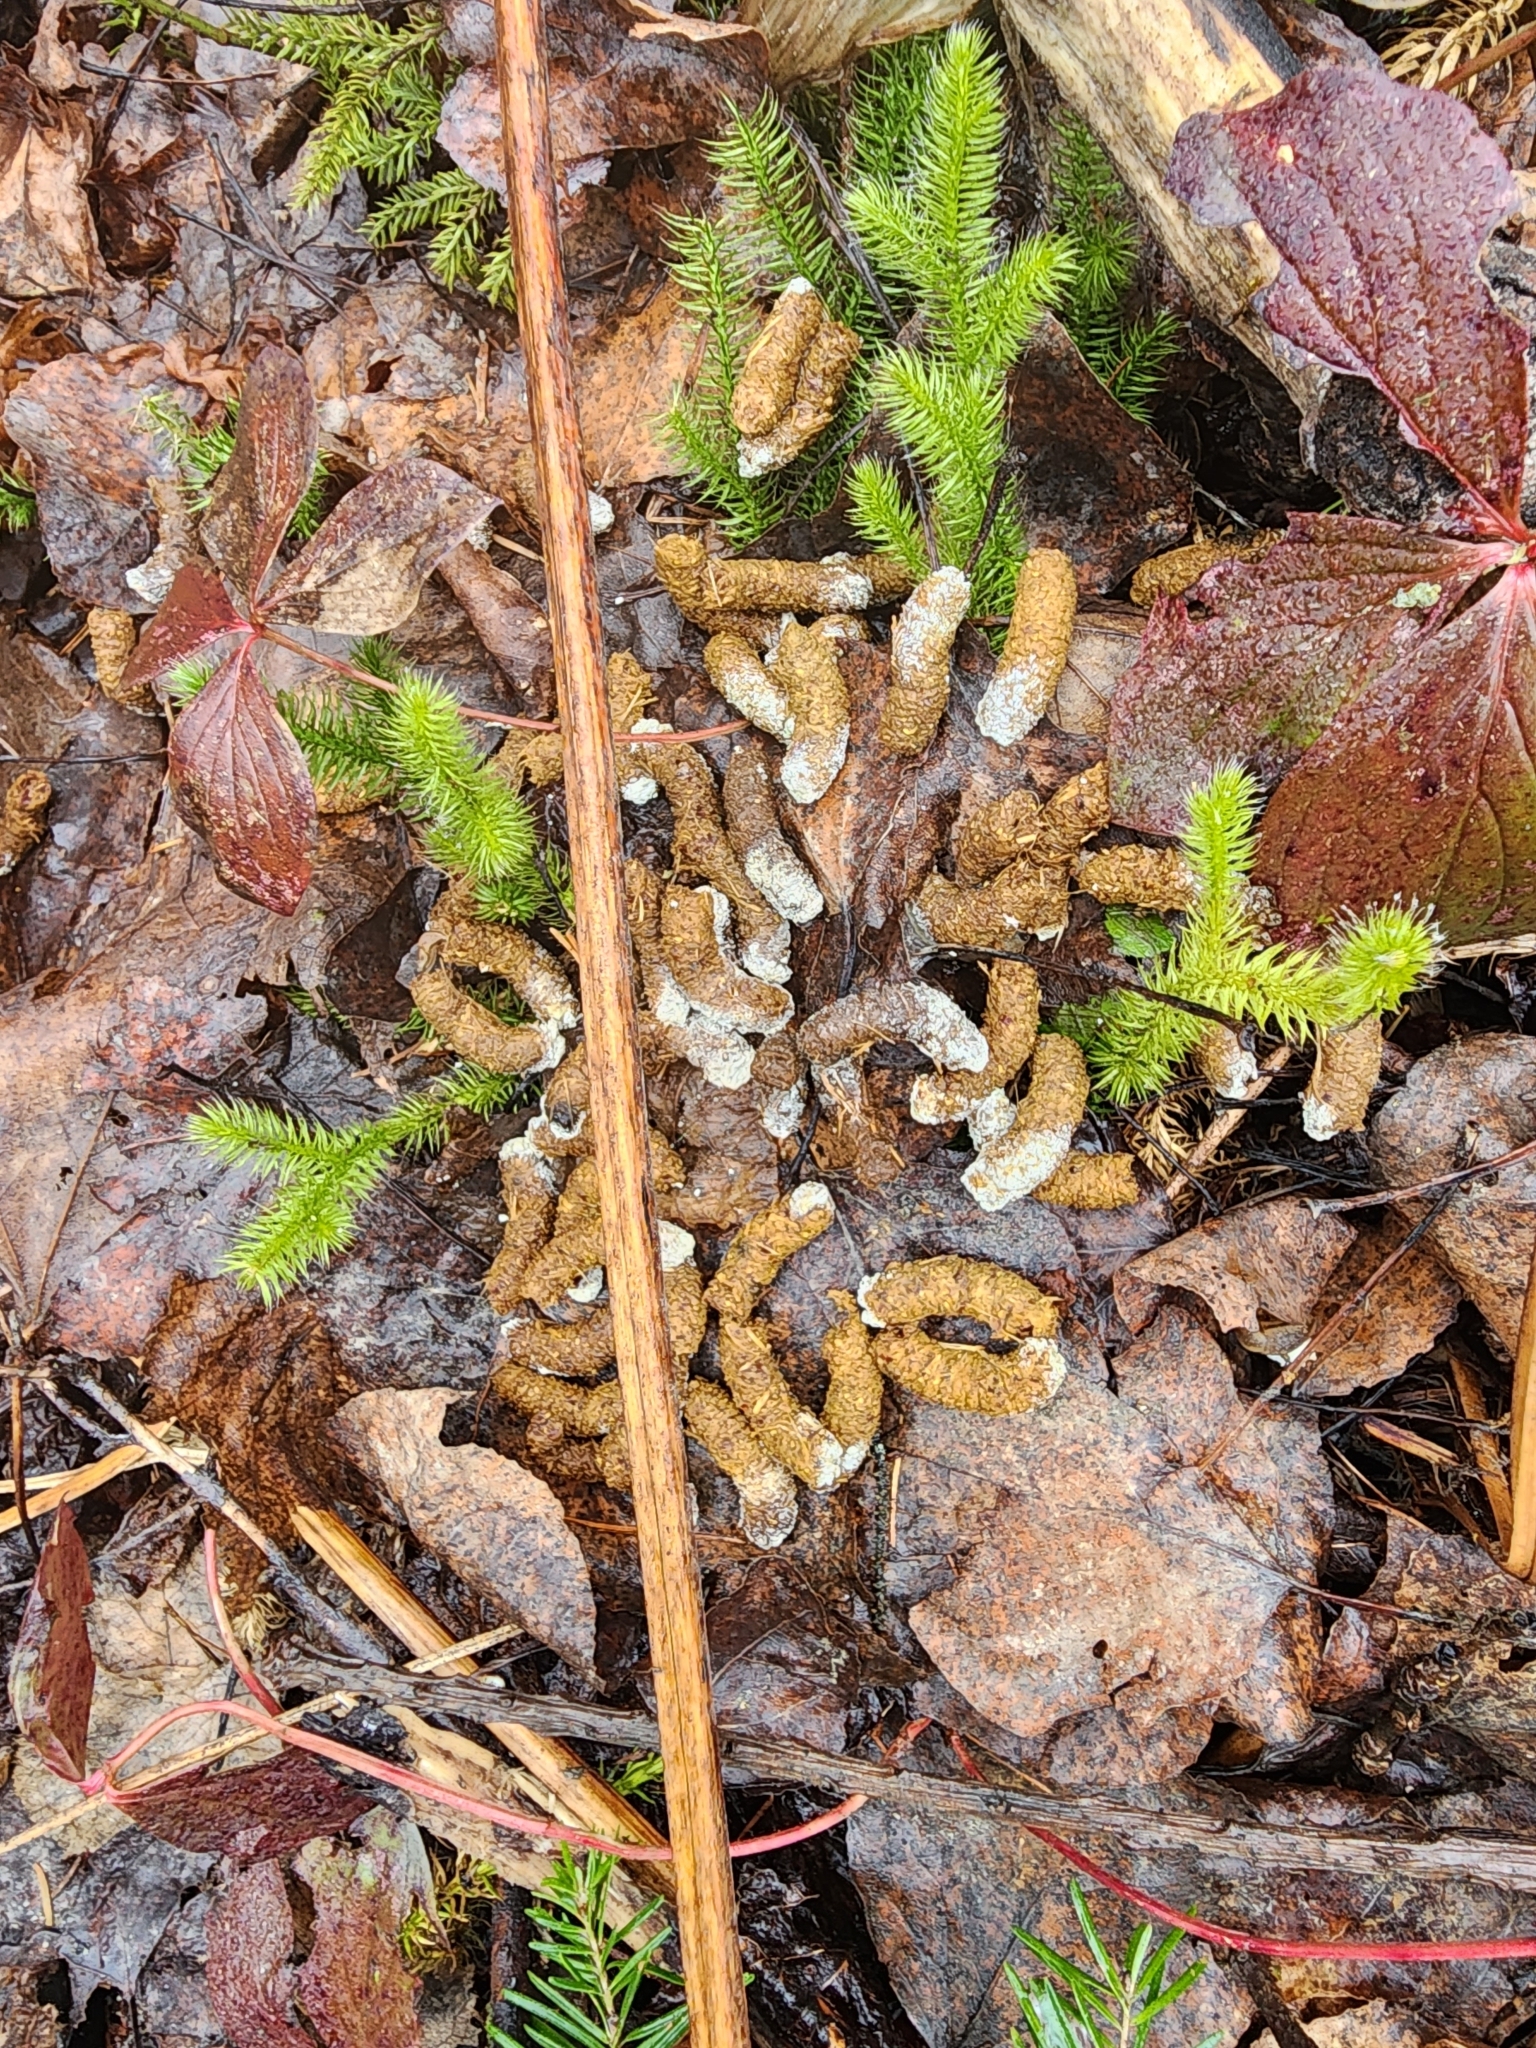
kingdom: Animalia
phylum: Chordata
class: Aves
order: Galliformes
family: Phasianidae
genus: Bonasa
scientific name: Bonasa umbellus
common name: Ruffed grouse
